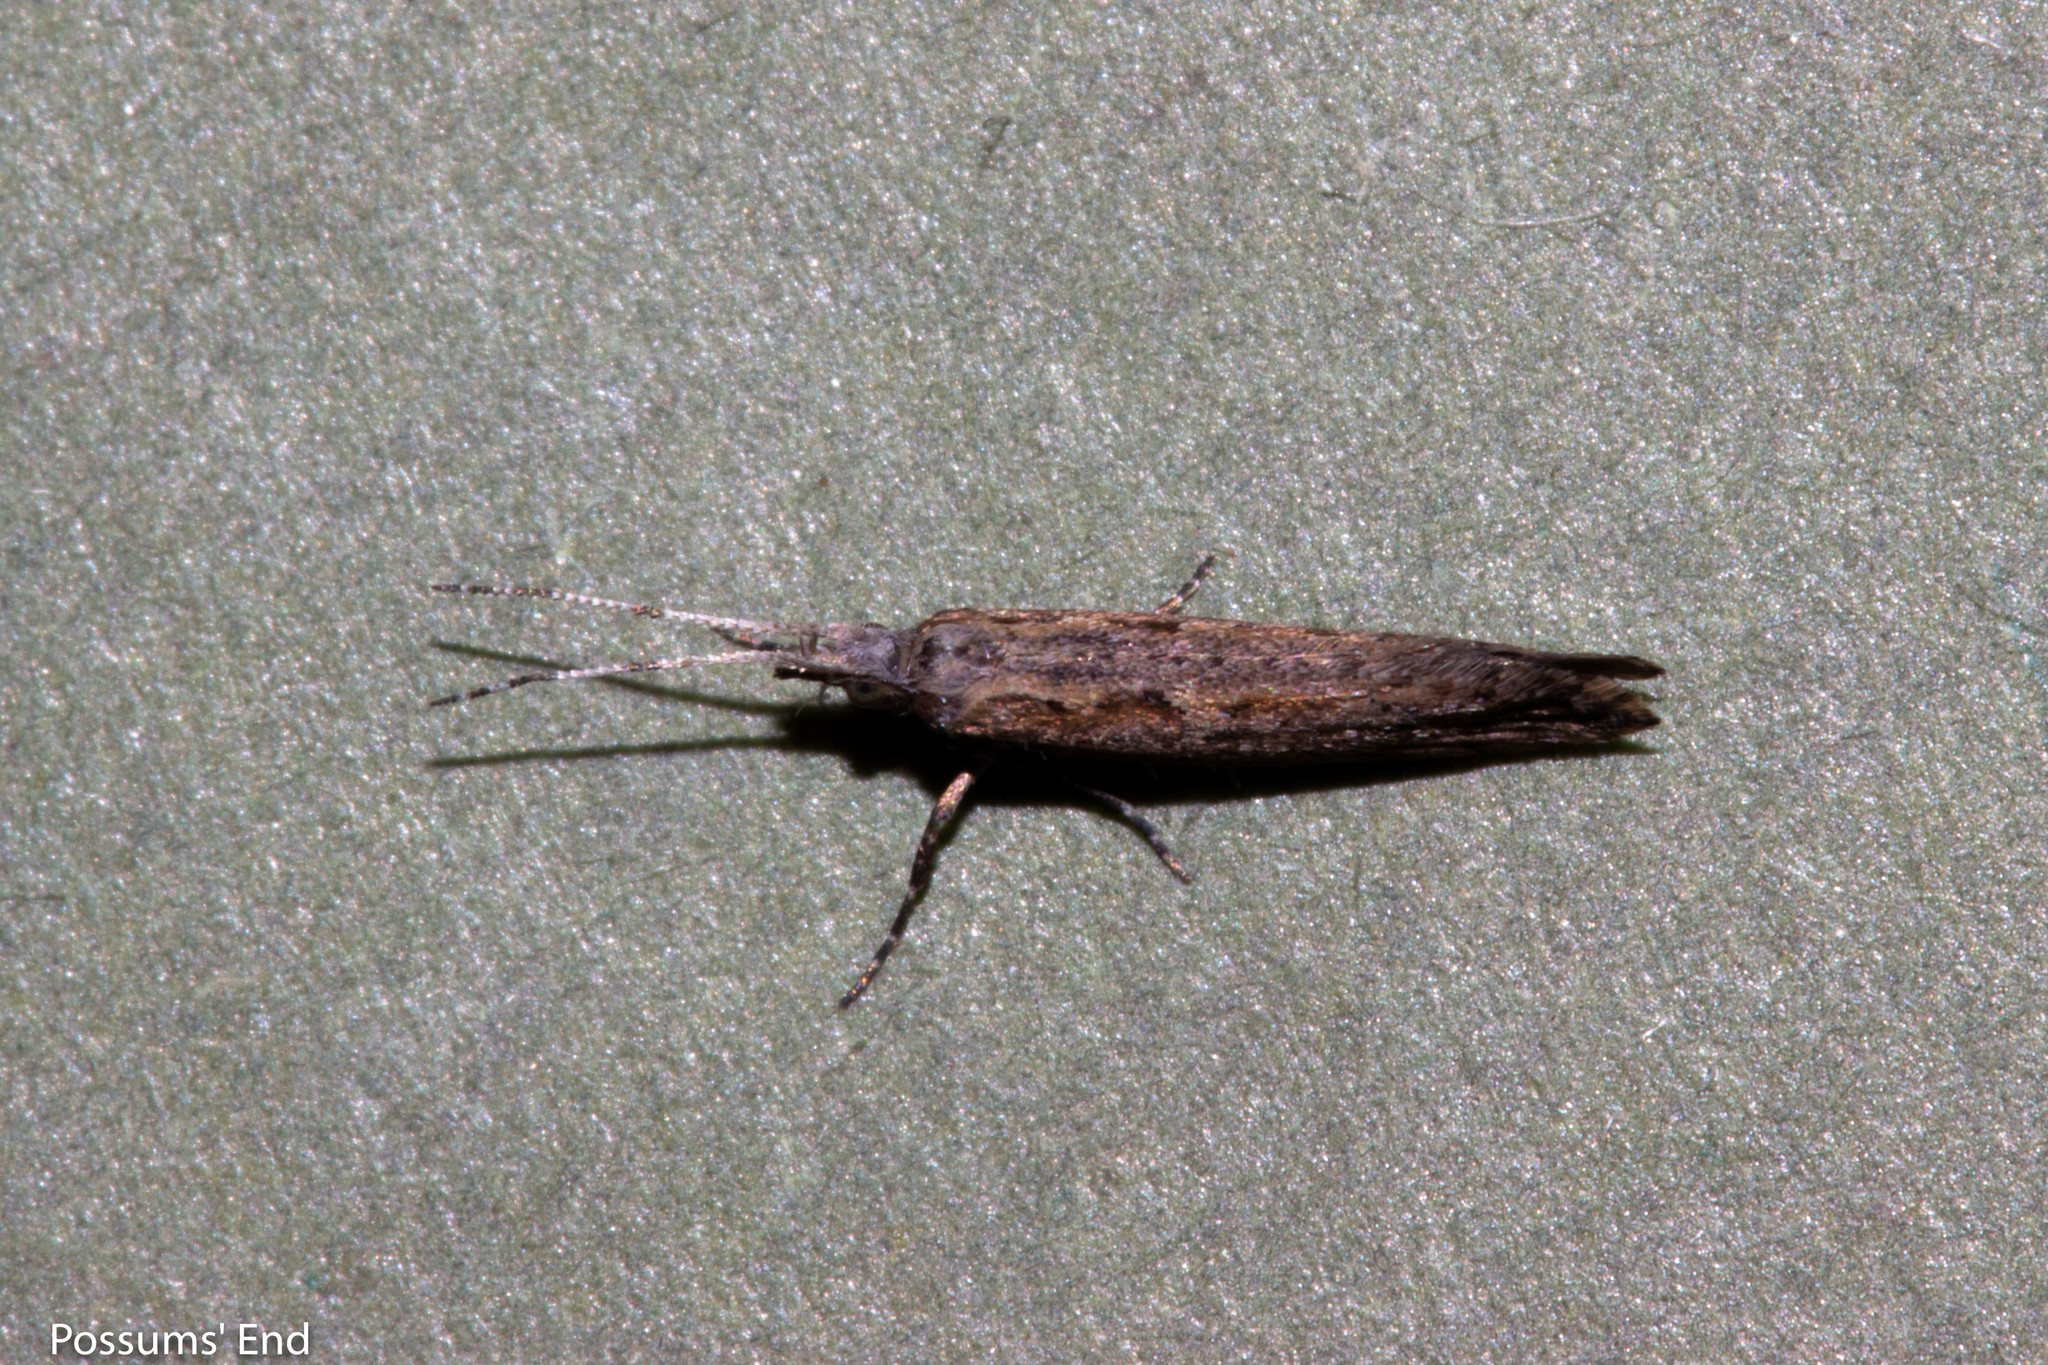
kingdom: Animalia
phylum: Arthropoda
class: Insecta
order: Lepidoptera
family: Plutellidae
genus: Plutella
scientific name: Plutella xylostella
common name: Diamond-back moth
